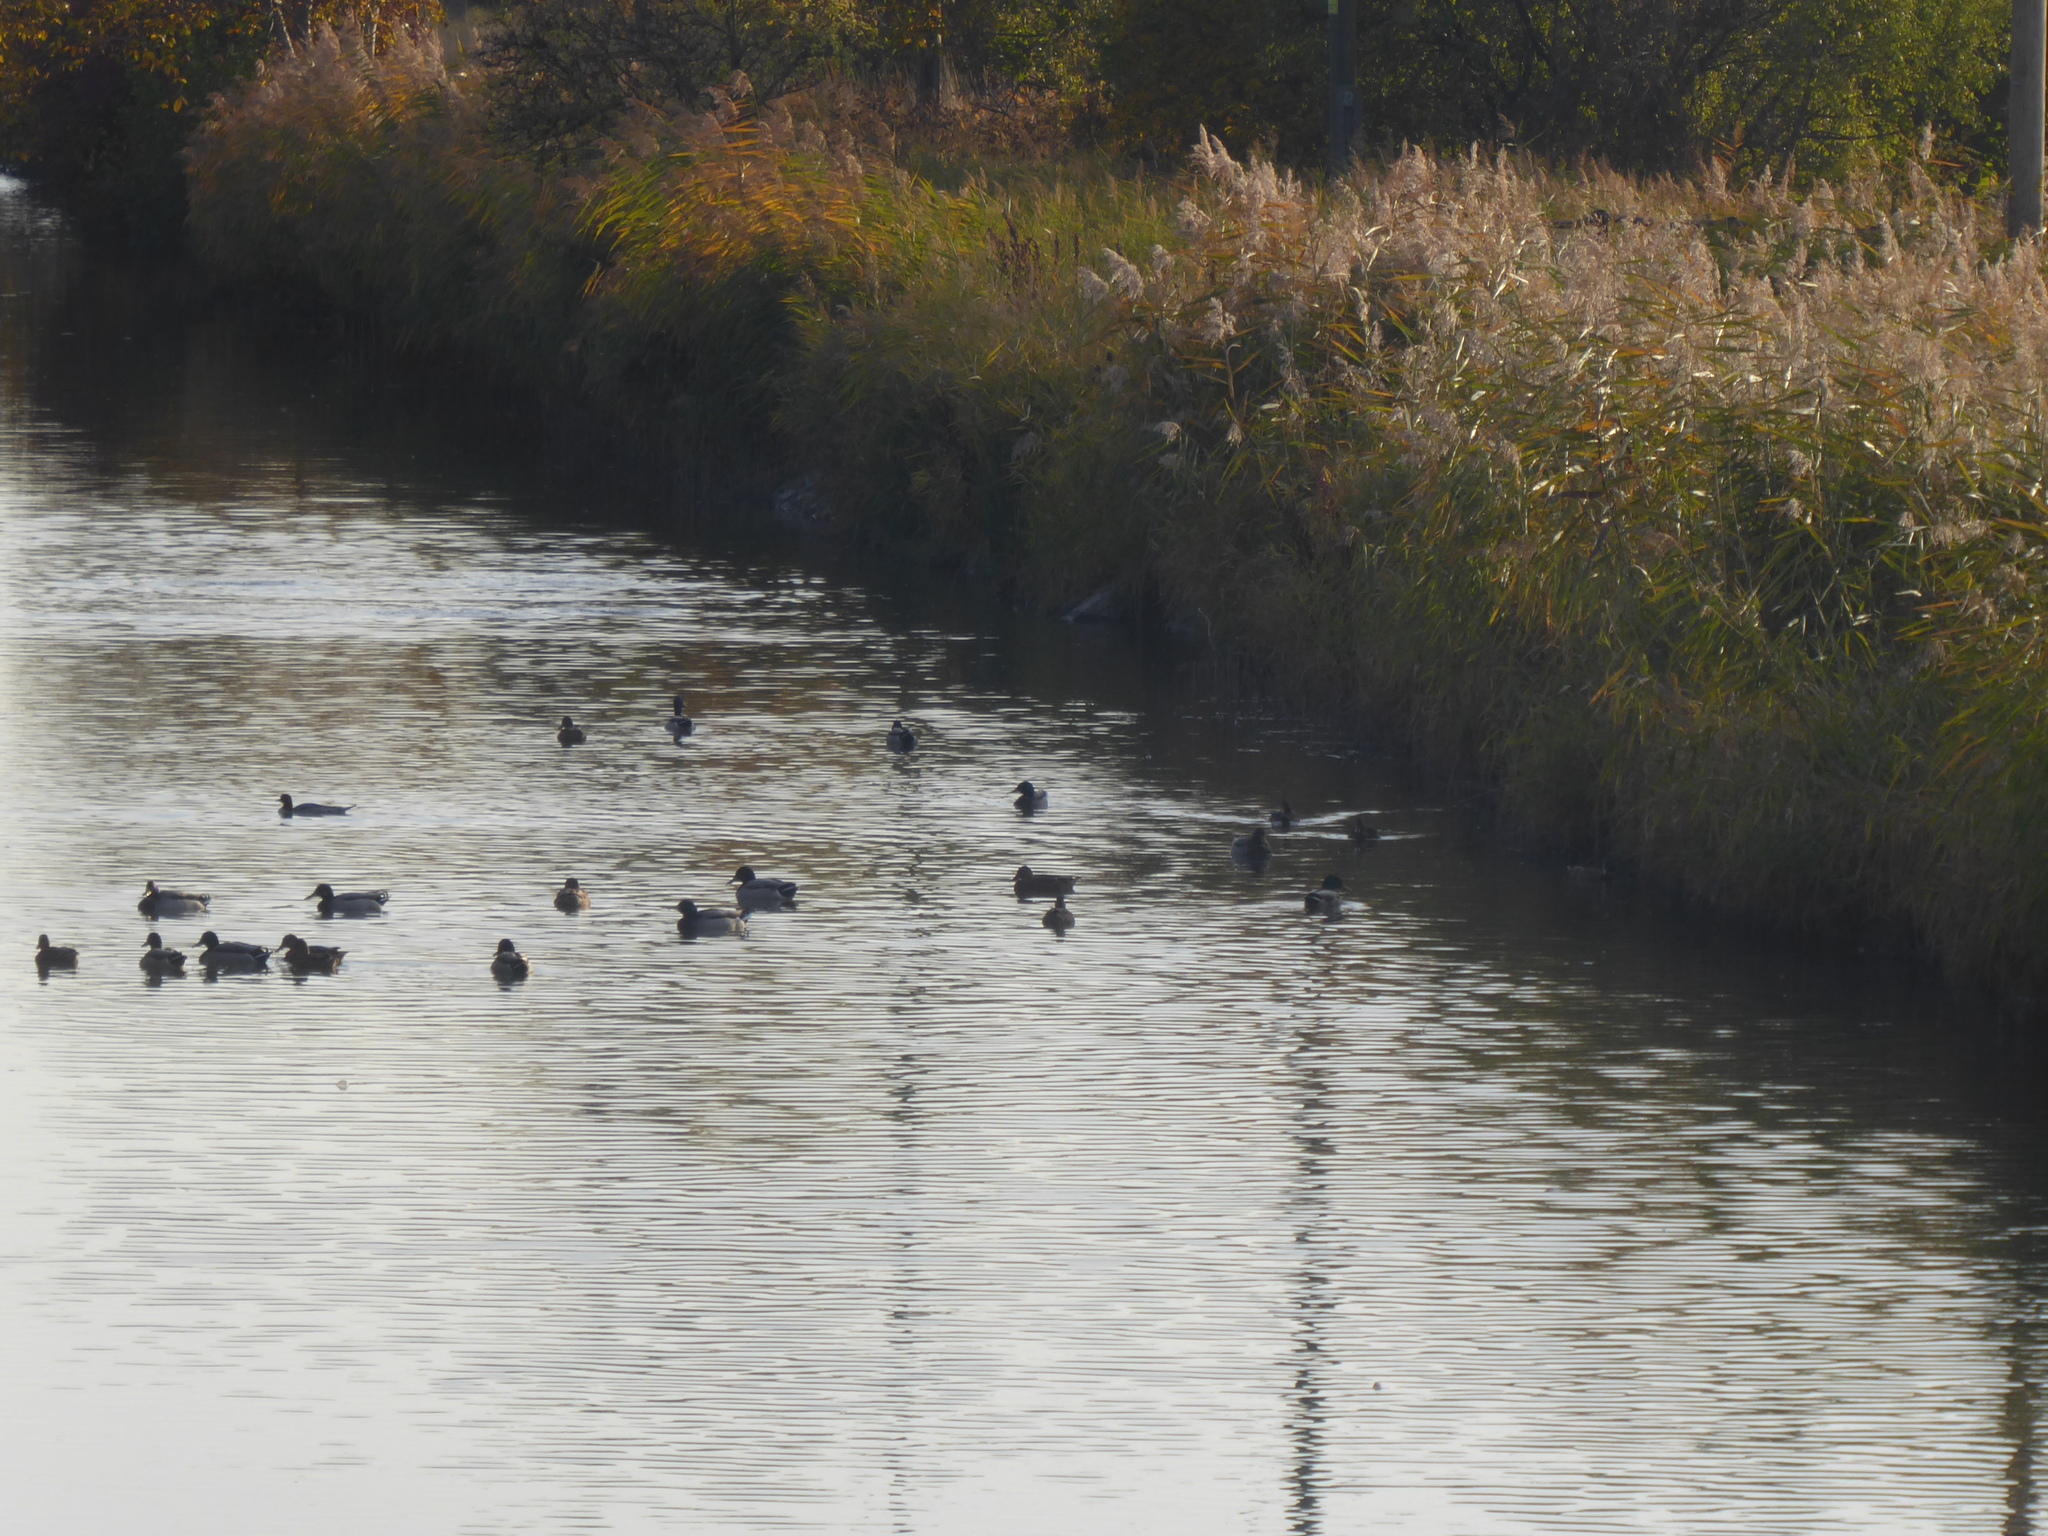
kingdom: Animalia
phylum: Chordata
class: Aves
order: Anseriformes
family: Anatidae
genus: Anas
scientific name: Anas platyrhynchos
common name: Mallard
